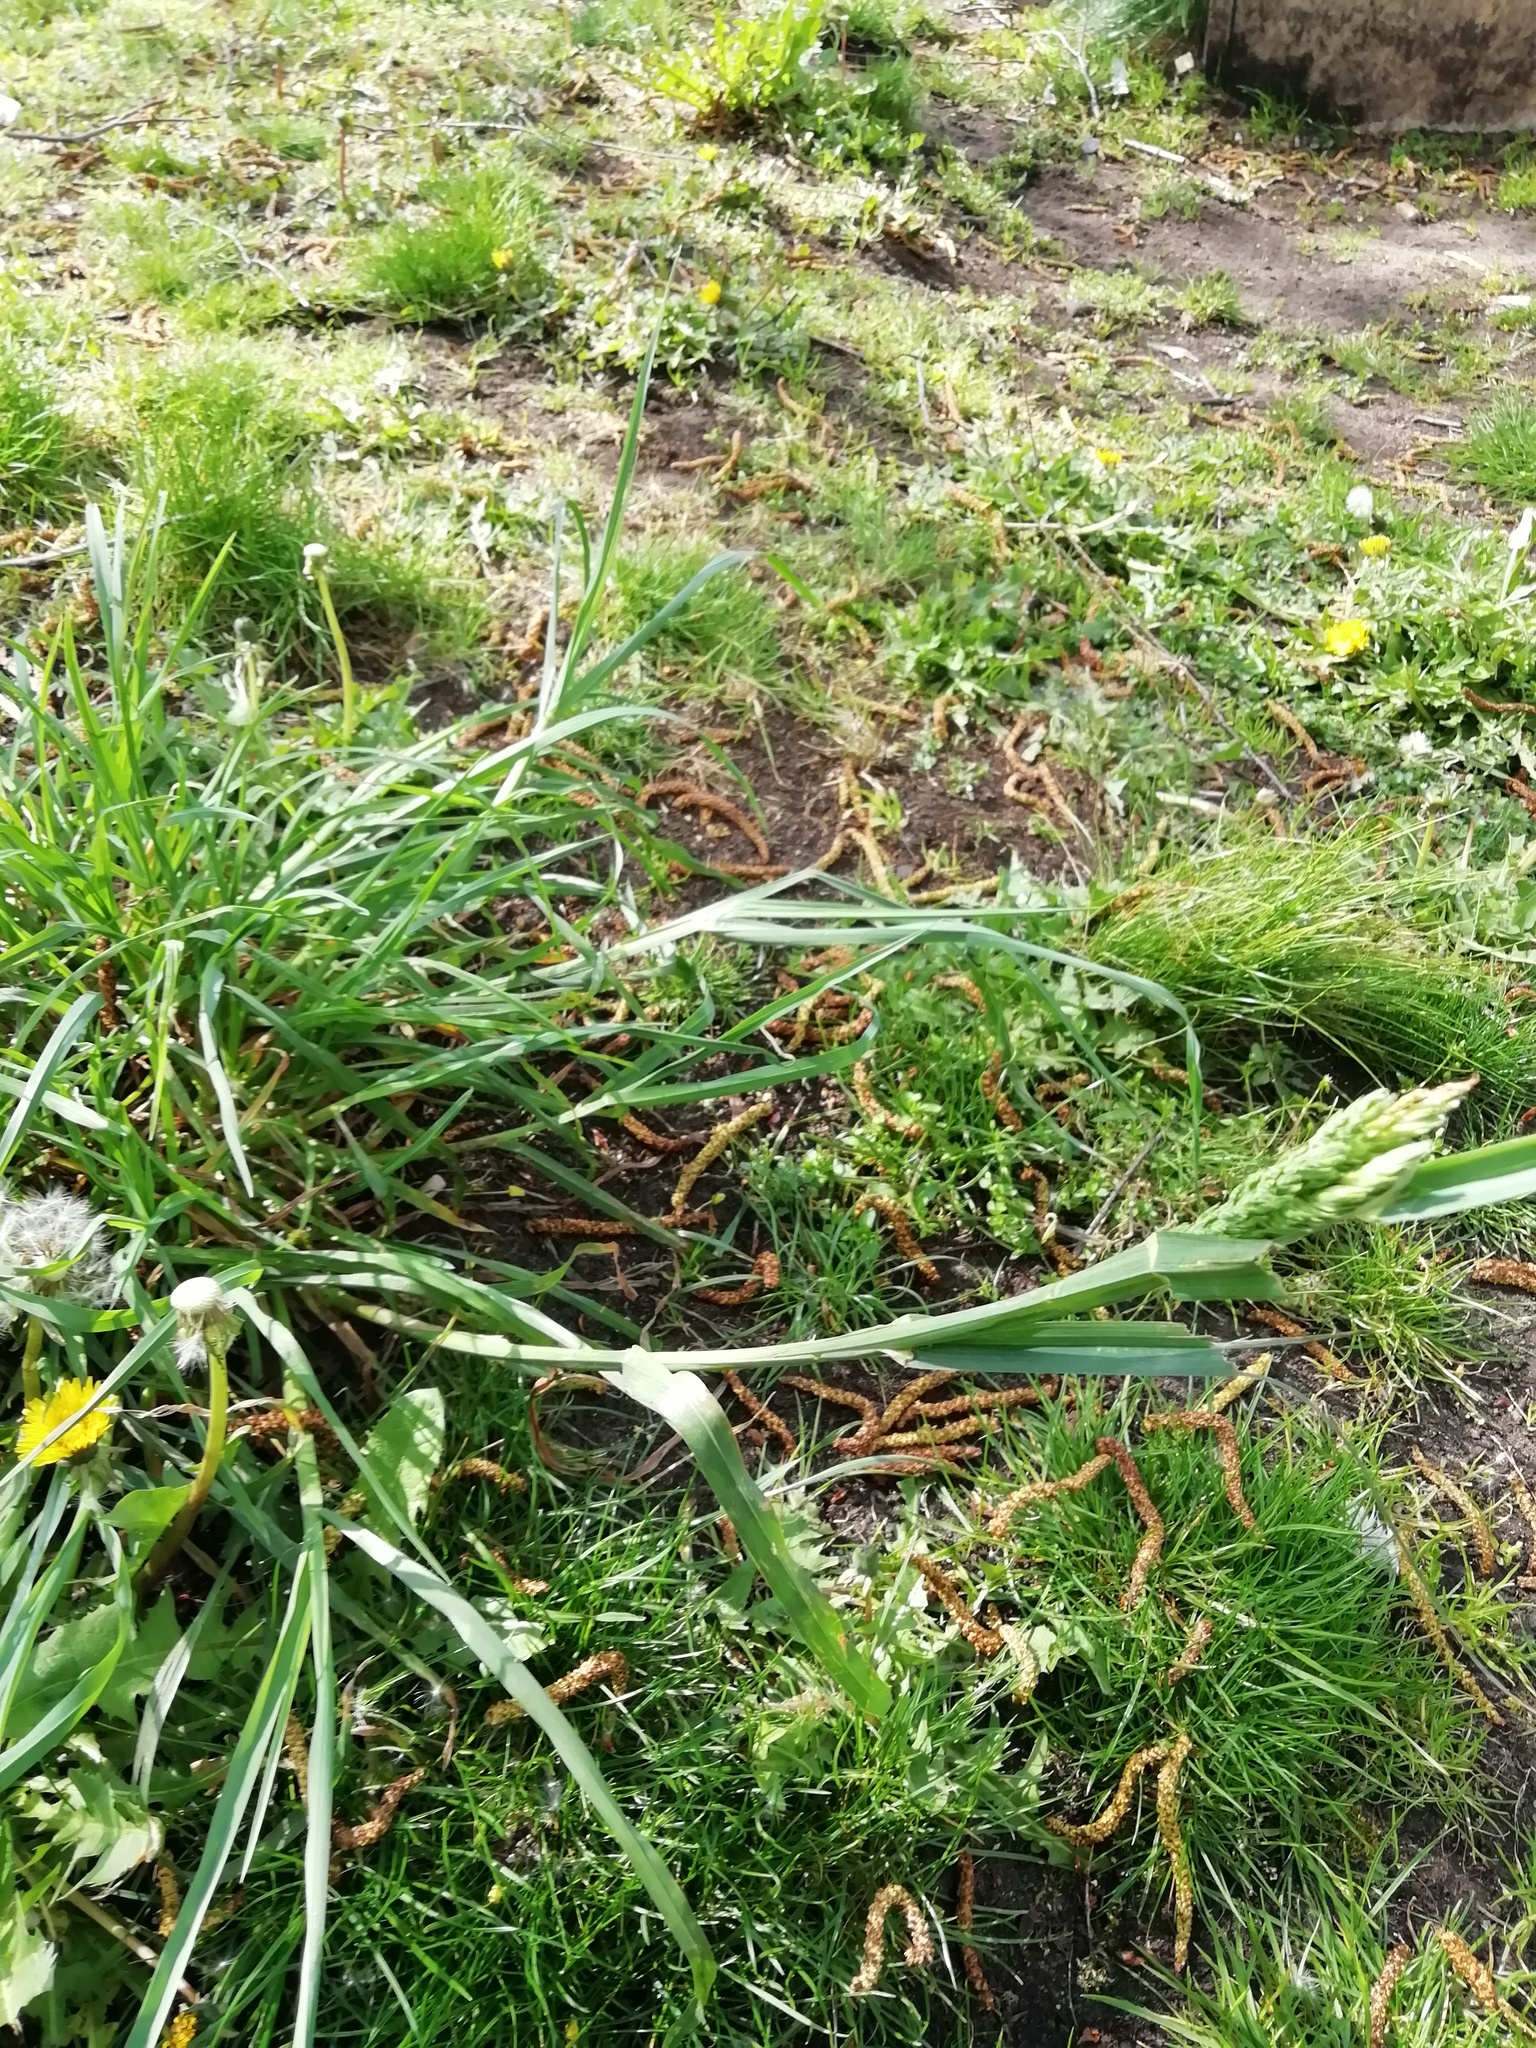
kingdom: Plantae
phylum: Tracheophyta
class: Liliopsida
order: Poales
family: Poaceae
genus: Dactylis
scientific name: Dactylis glomerata
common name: Orchardgrass
